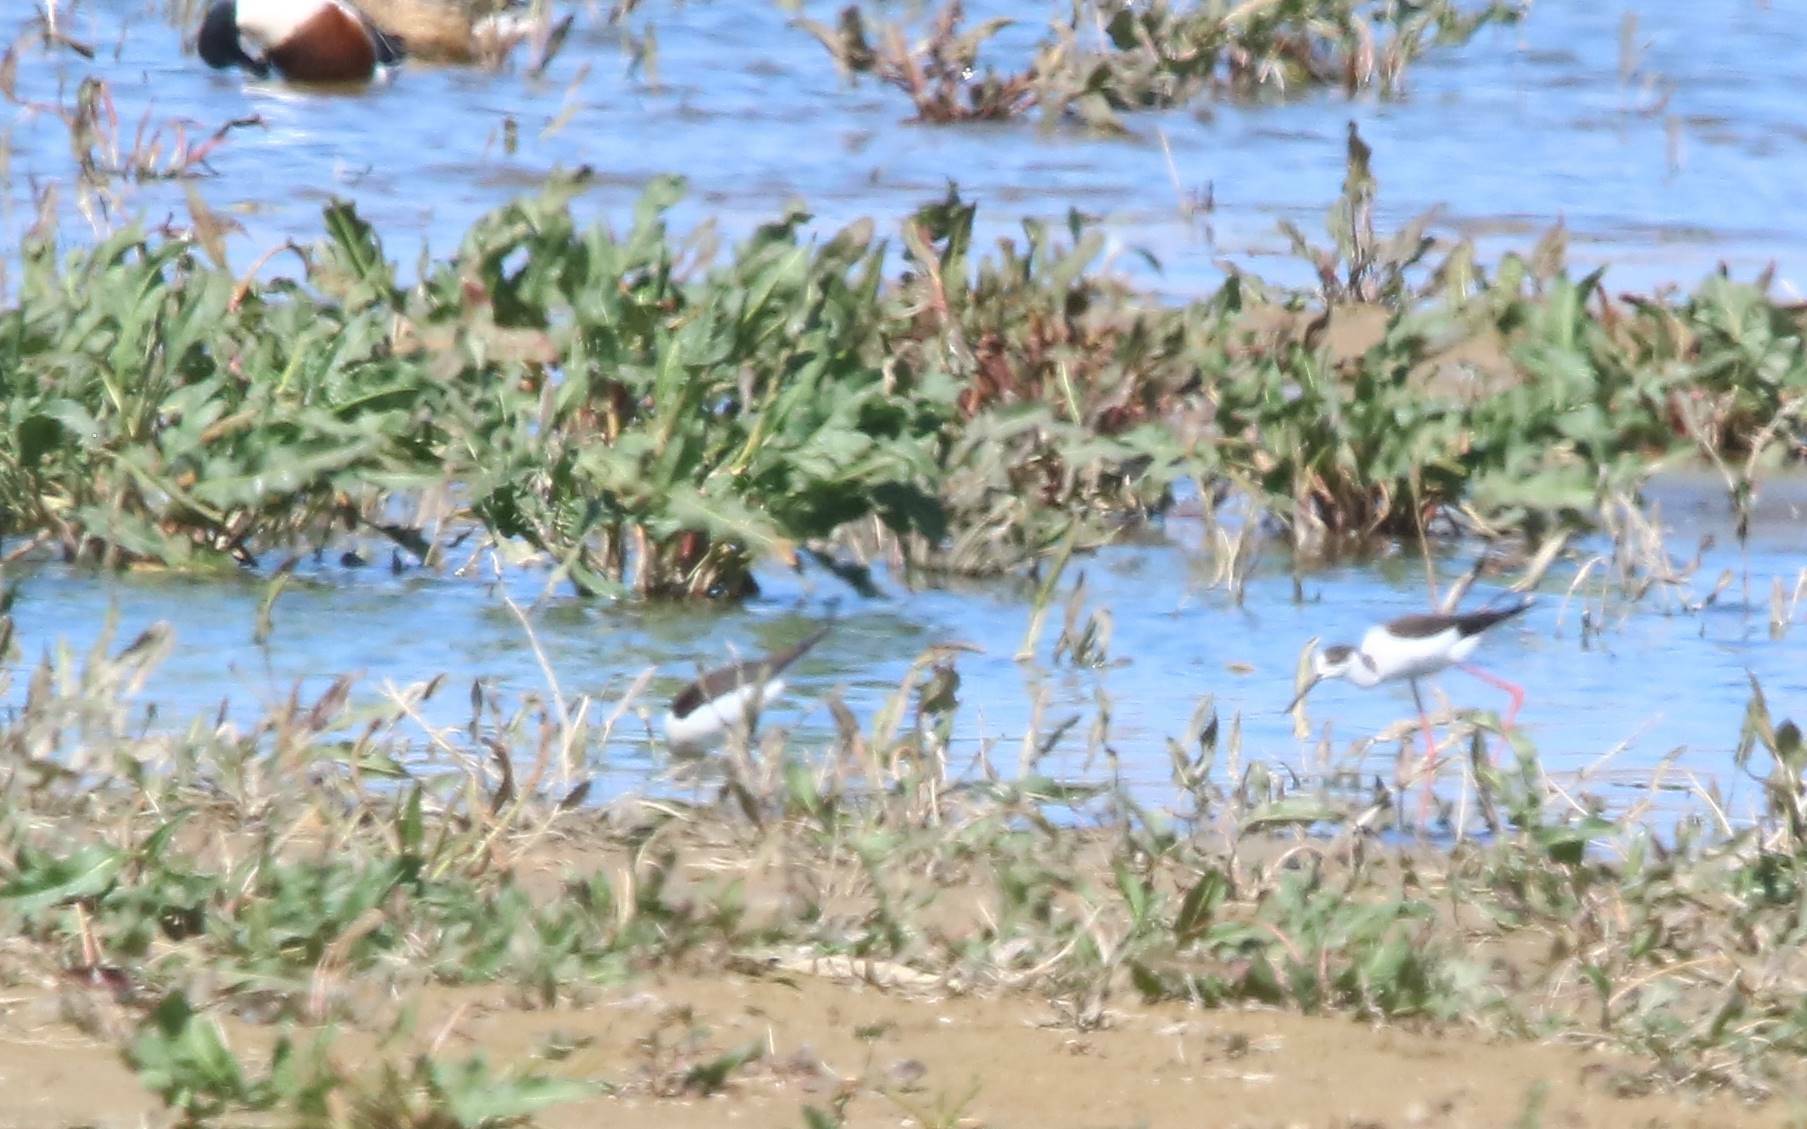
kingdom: Animalia
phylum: Chordata
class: Aves
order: Charadriiformes
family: Recurvirostridae
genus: Himantopus
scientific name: Himantopus himantopus
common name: Black-winged stilt
